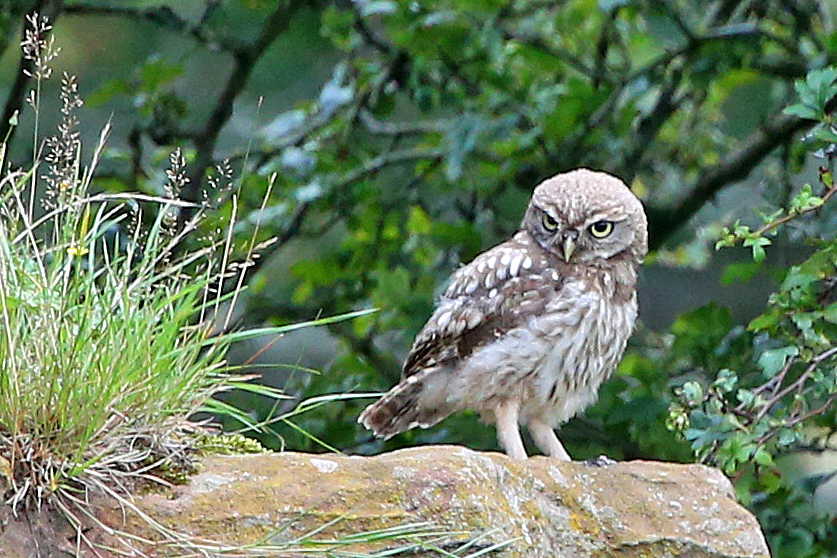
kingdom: Animalia
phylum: Chordata
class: Aves
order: Strigiformes
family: Strigidae
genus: Athene
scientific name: Athene noctua
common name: Little owl
